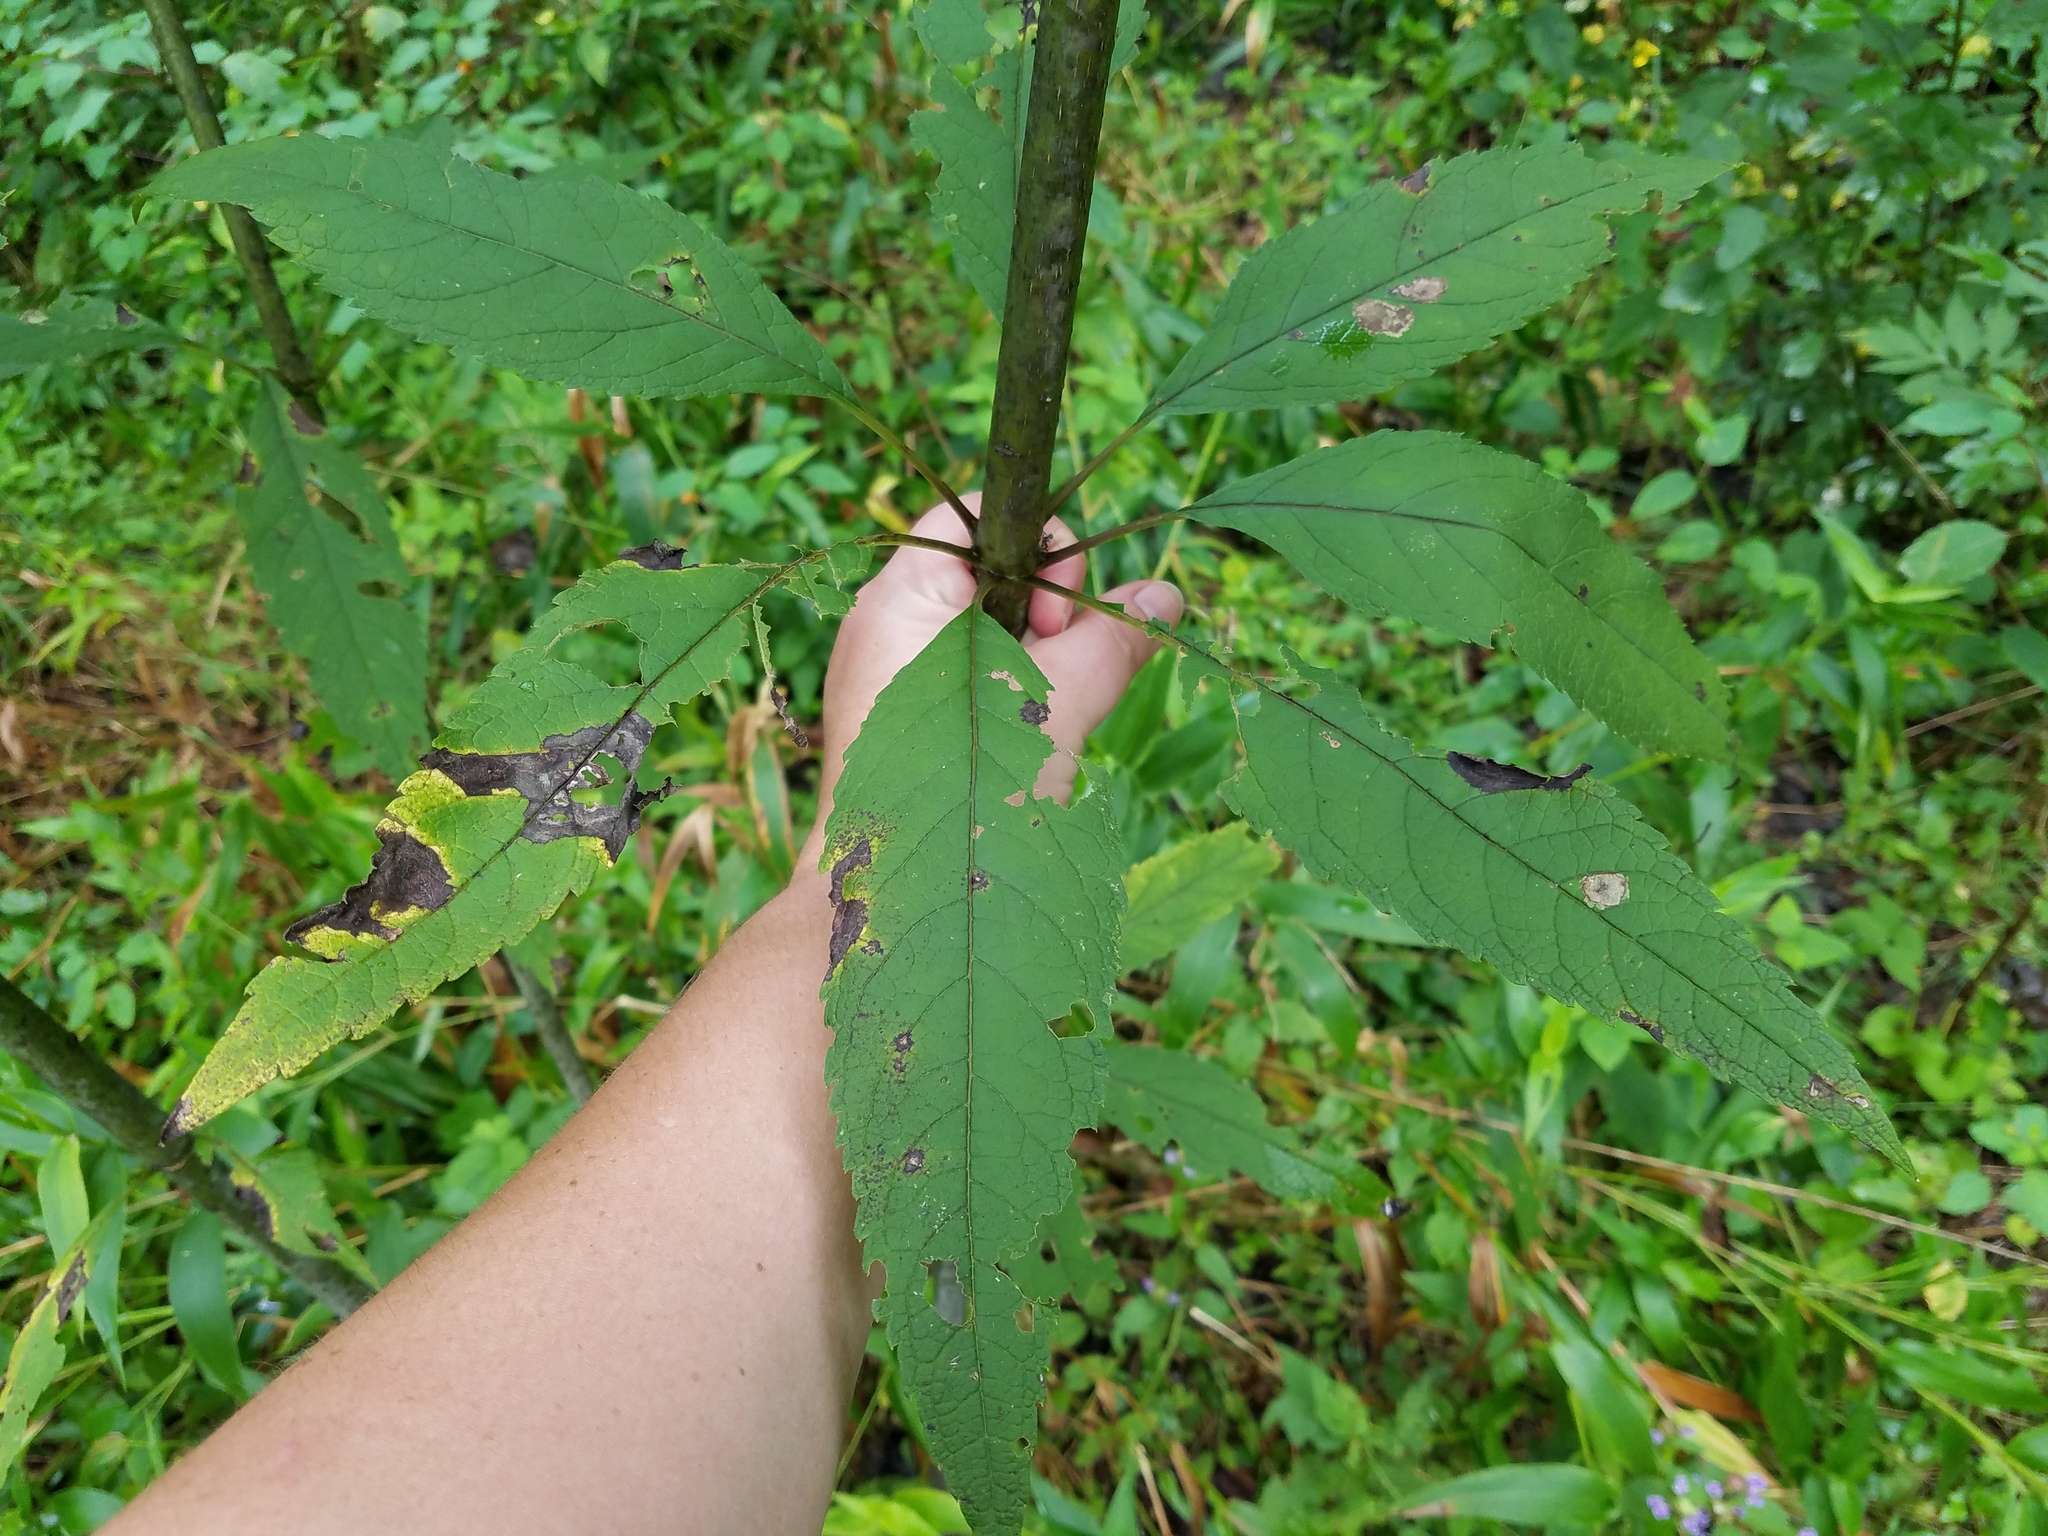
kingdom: Plantae
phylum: Tracheophyta
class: Magnoliopsida
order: Asterales
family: Asteraceae
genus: Eutrochium
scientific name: Eutrochium fistulosum
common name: Trumpetweed
